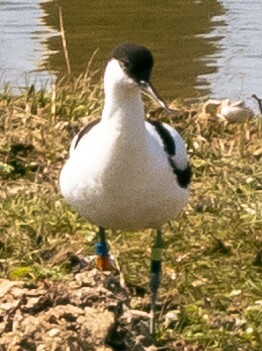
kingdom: Animalia
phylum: Chordata
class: Aves
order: Charadriiformes
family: Recurvirostridae
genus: Recurvirostra
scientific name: Recurvirostra avosetta
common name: Pied avocet
